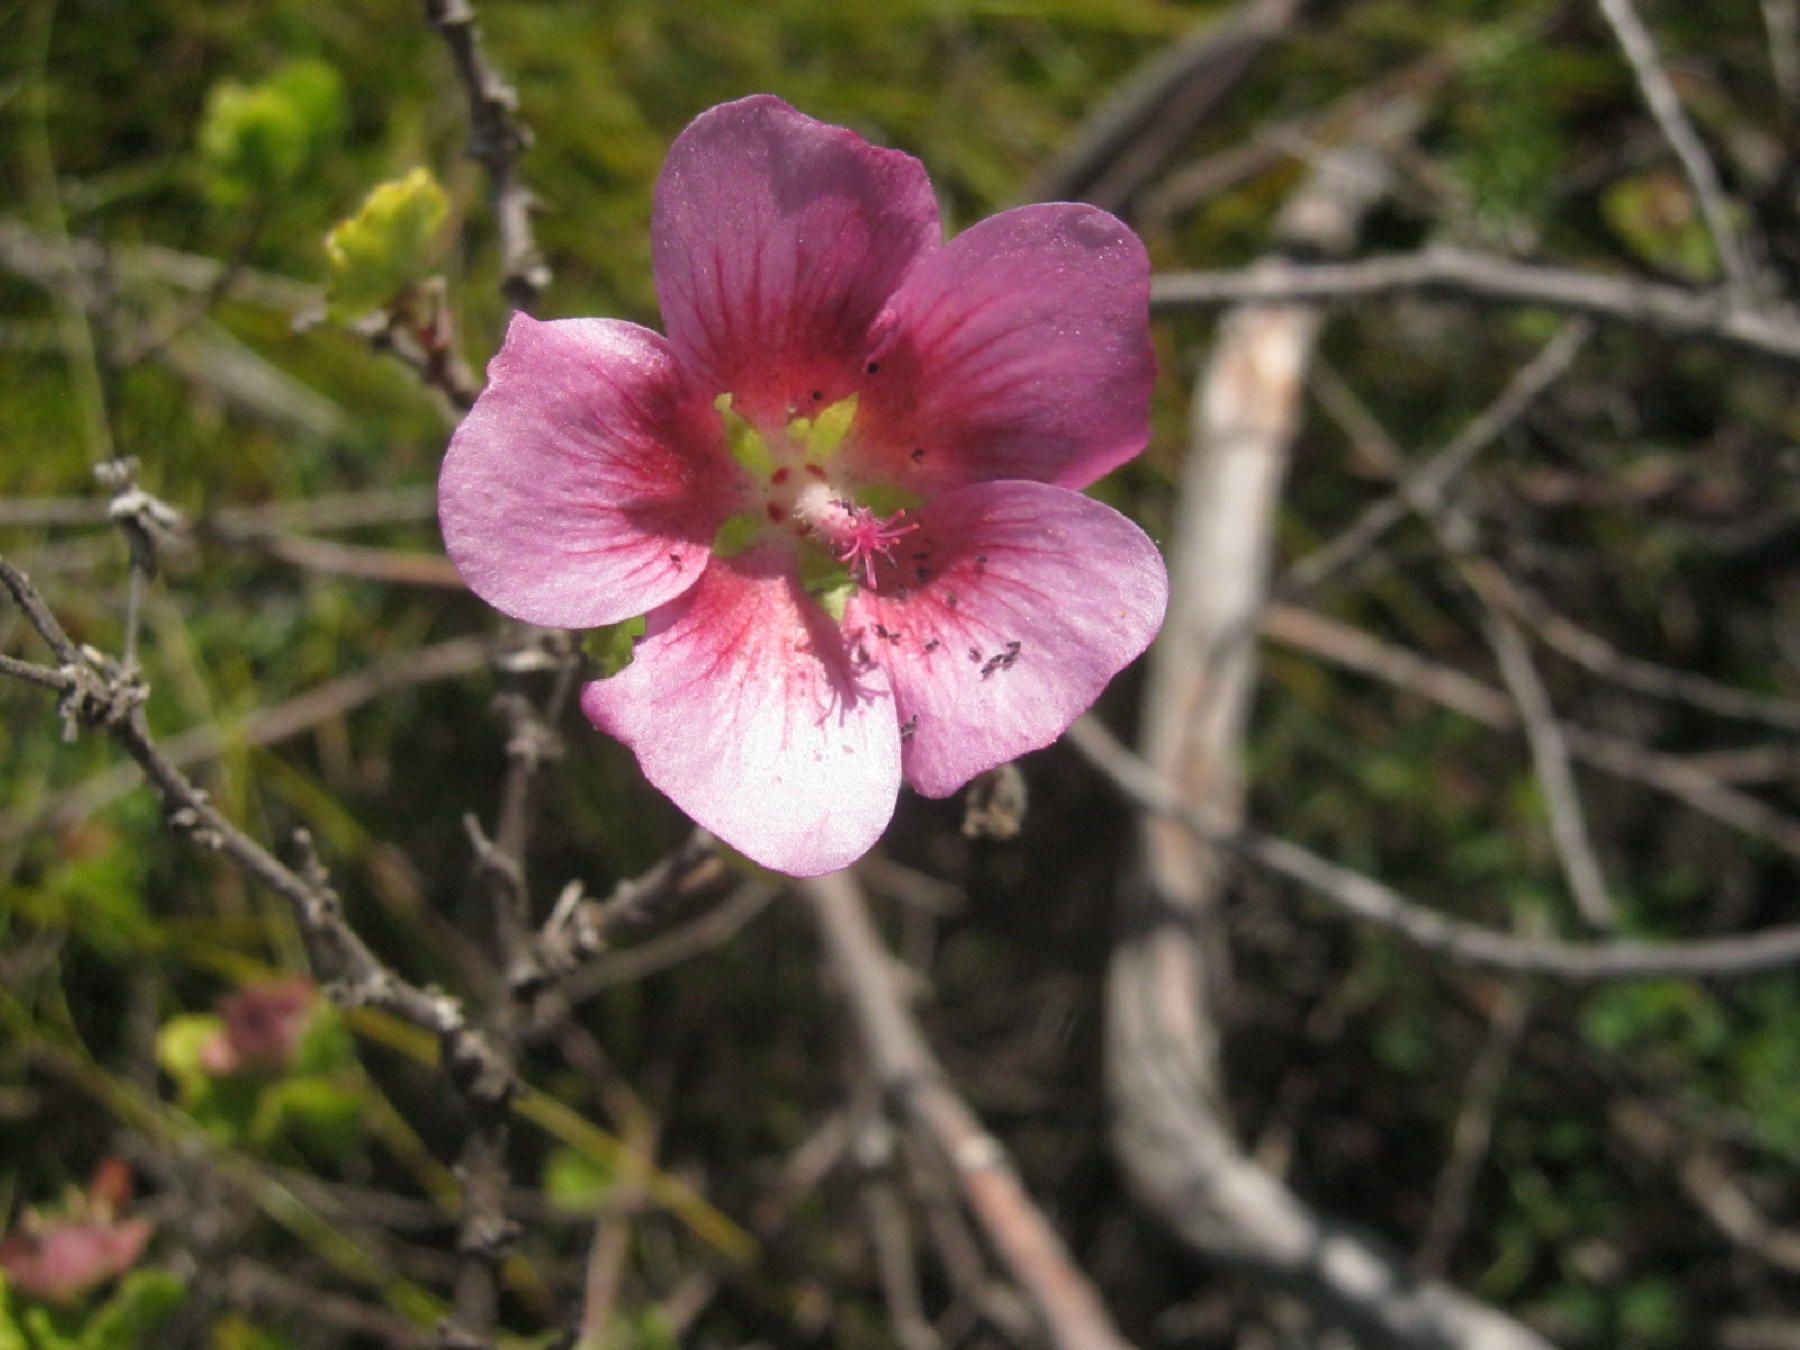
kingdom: Plantae
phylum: Tracheophyta
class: Magnoliopsida
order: Malvales
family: Malvaceae
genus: Anisodontea
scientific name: Anisodontea scabrosa
